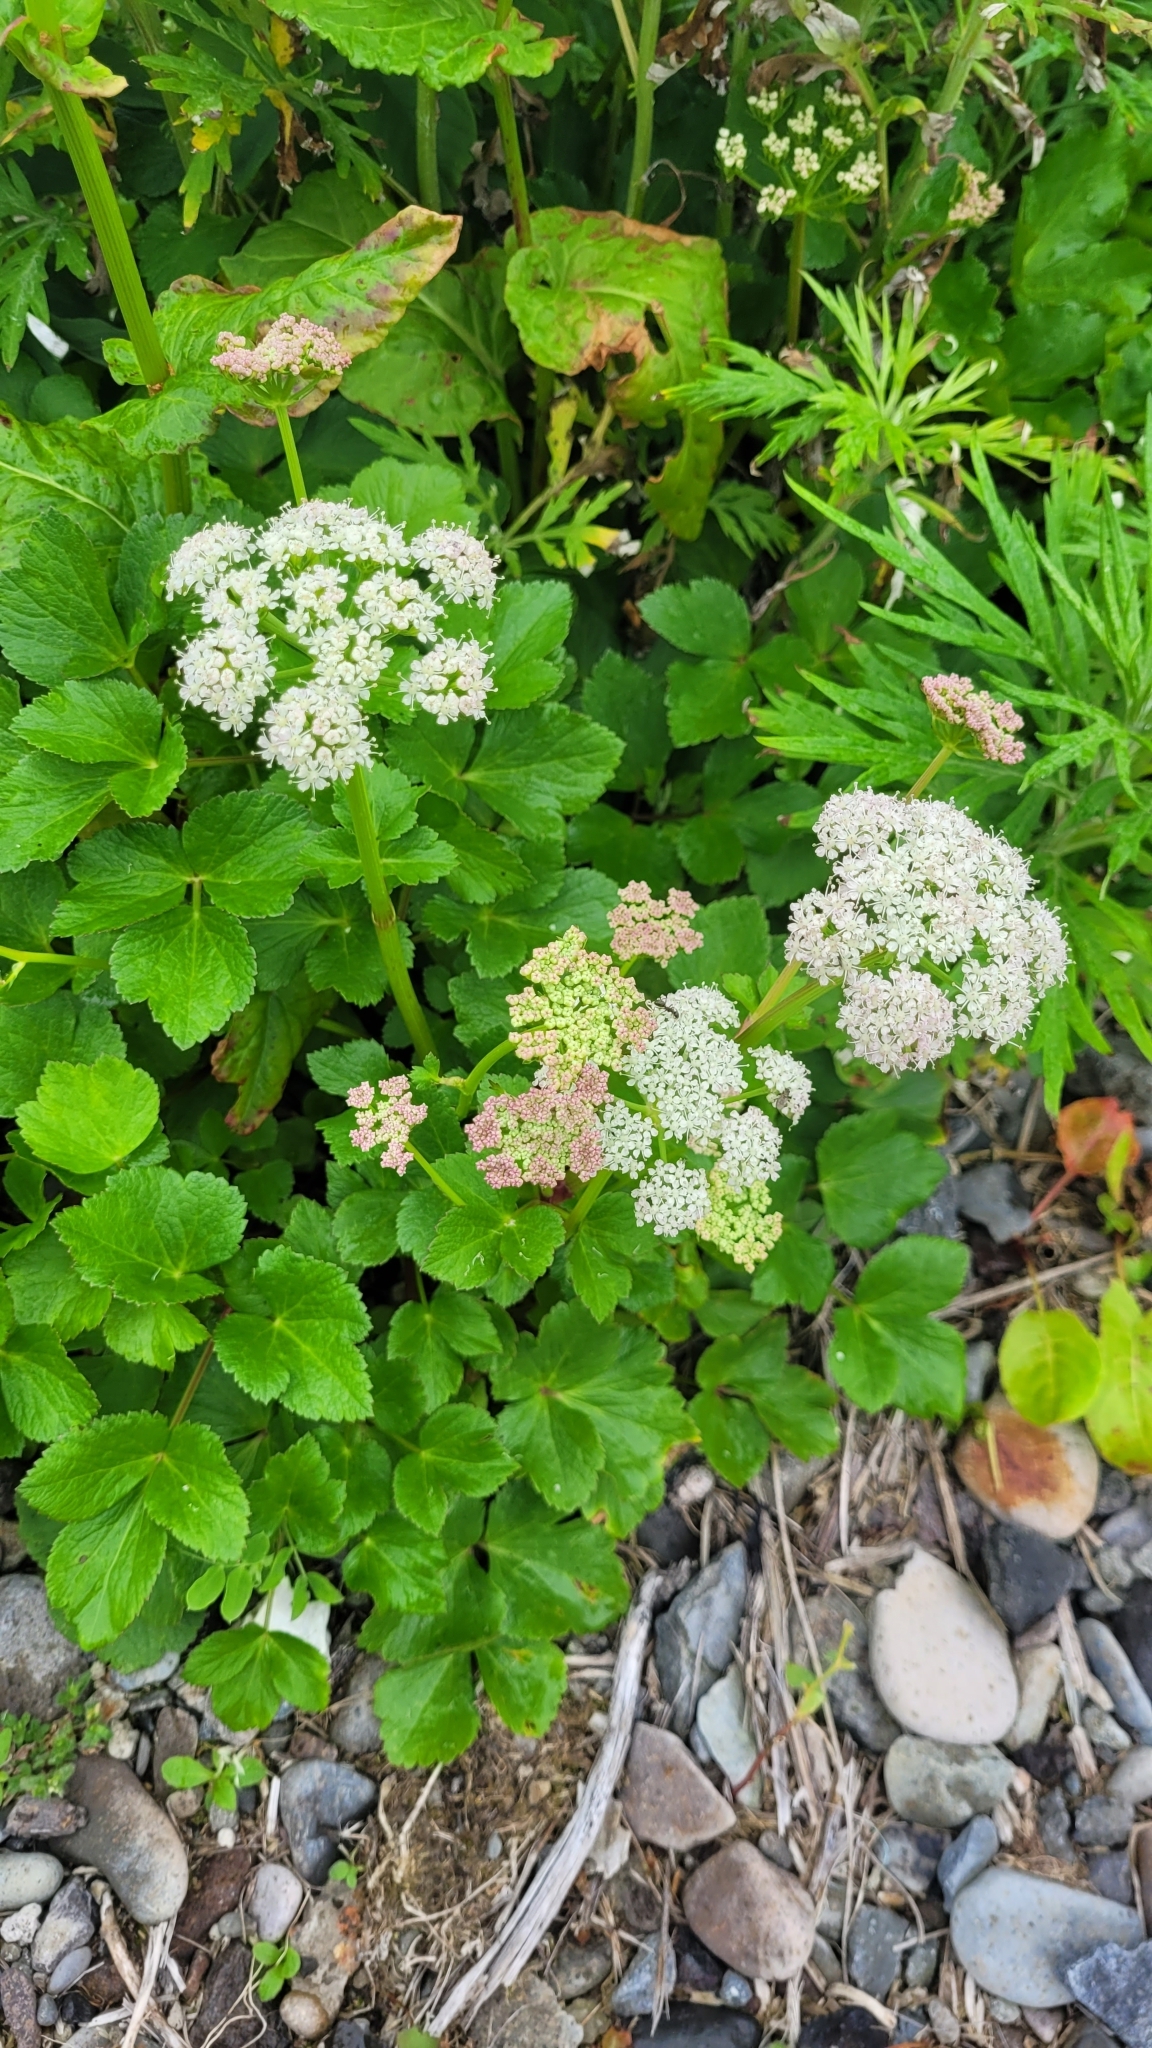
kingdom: Plantae
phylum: Tracheophyta
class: Magnoliopsida
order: Apiales
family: Apiaceae
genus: Ligusticum
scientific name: Ligusticum scothicum
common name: Beach lovage
